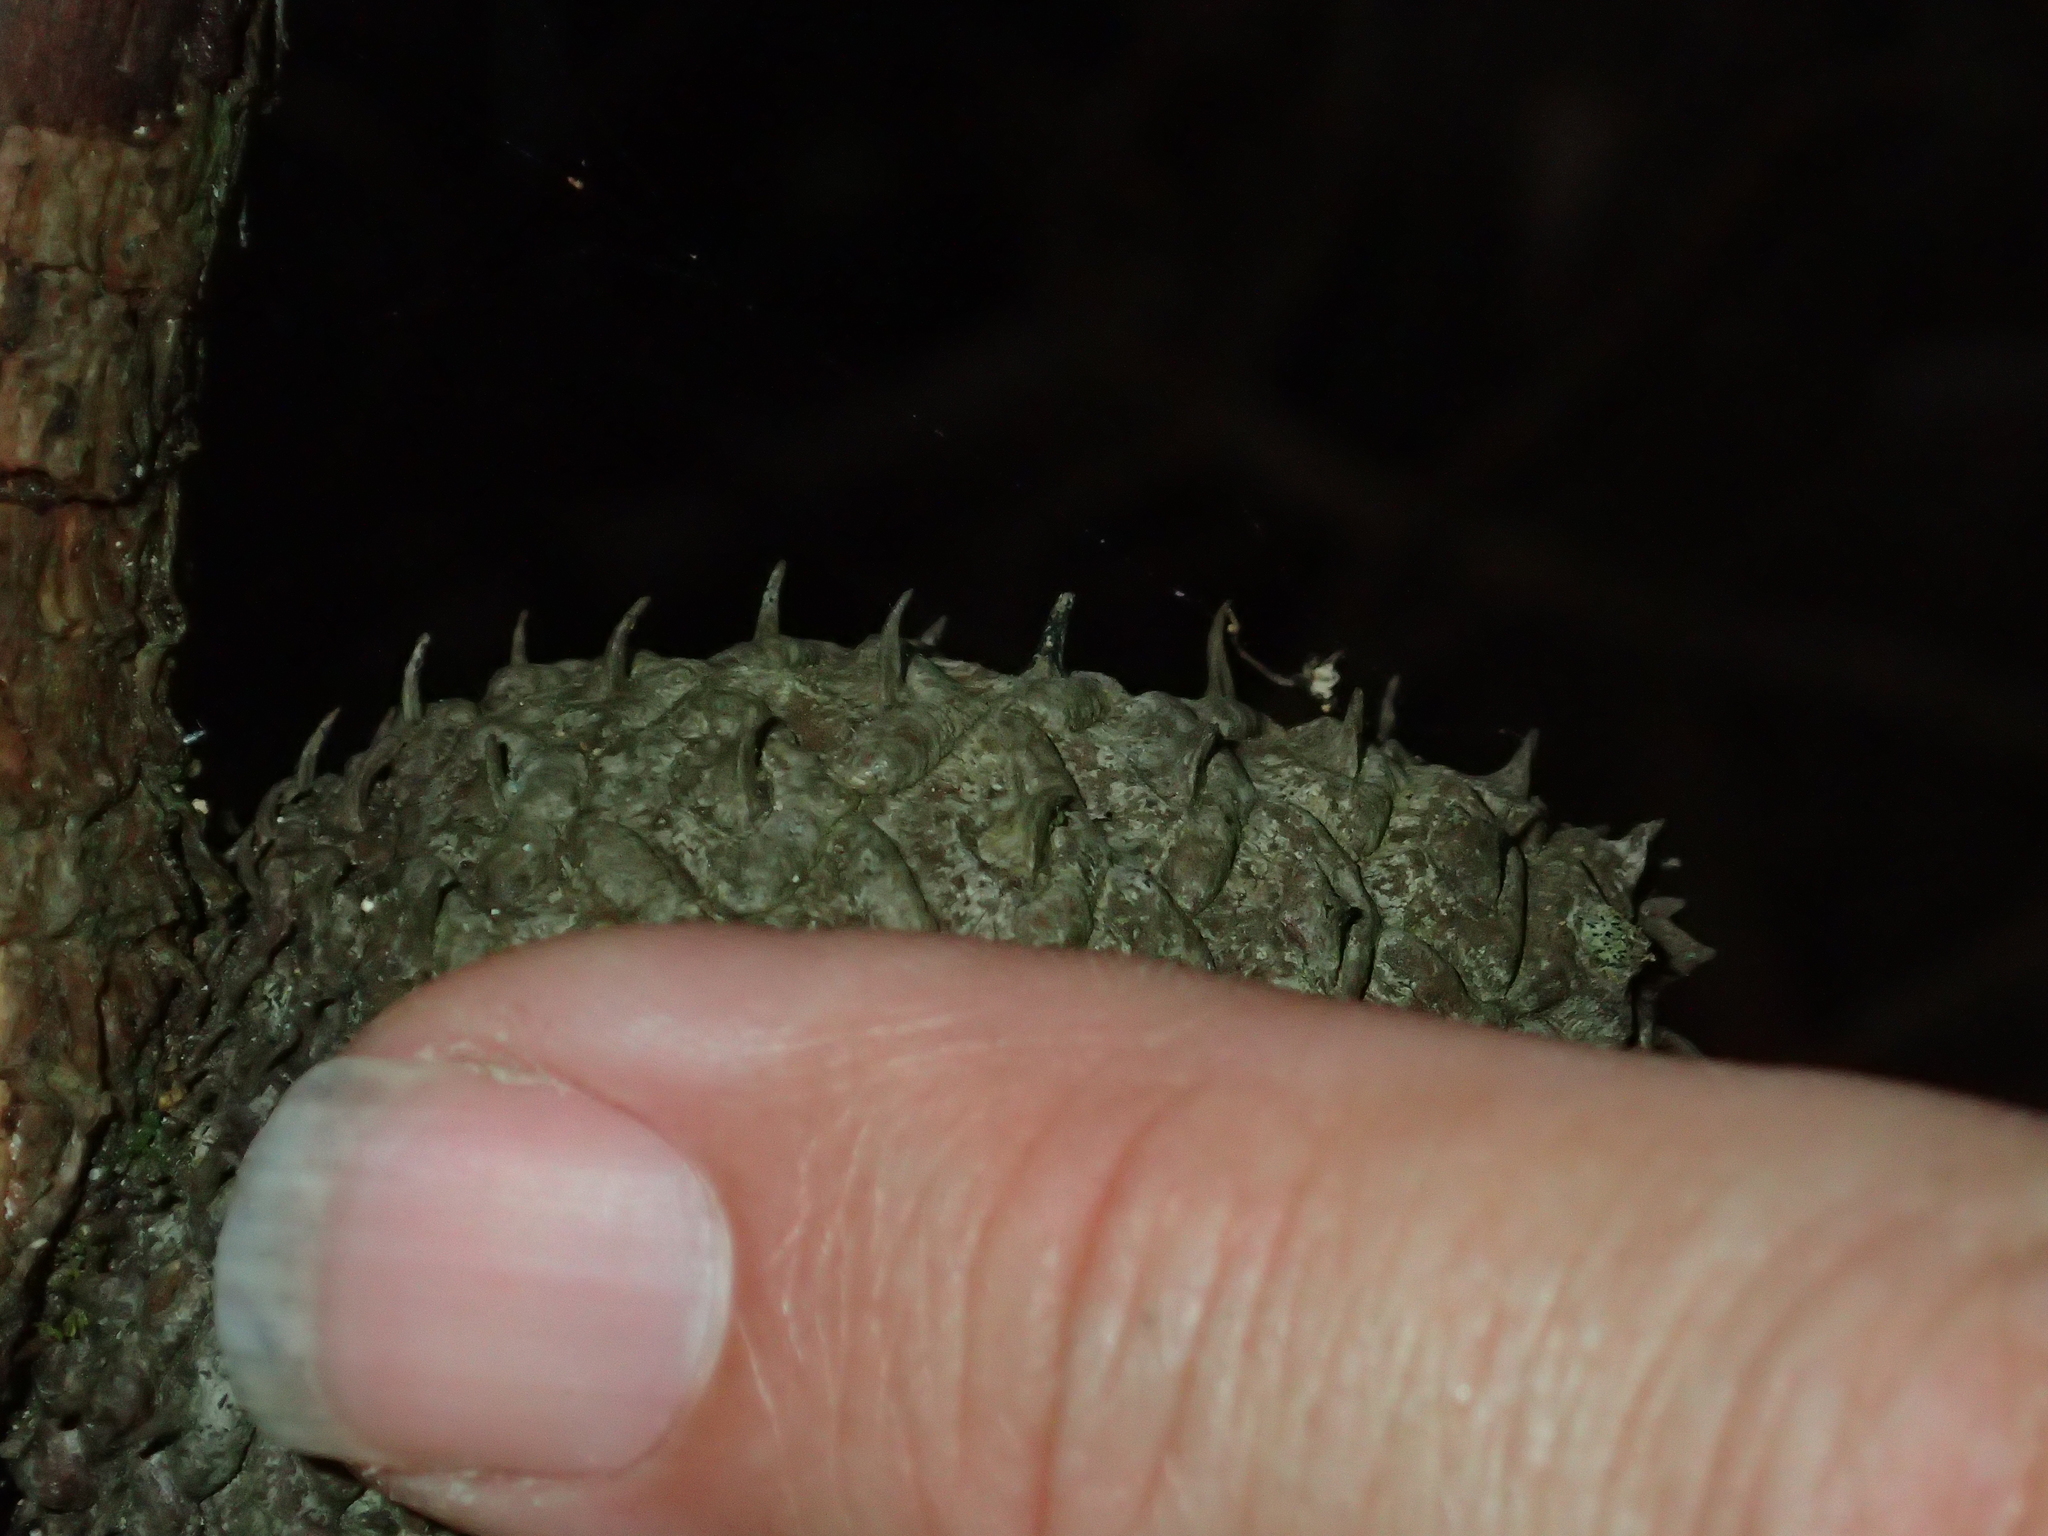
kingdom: Plantae
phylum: Tracheophyta
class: Pinopsida
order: Pinales
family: Pinaceae
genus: Pinus
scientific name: Pinus muricata
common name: Bishop pine
